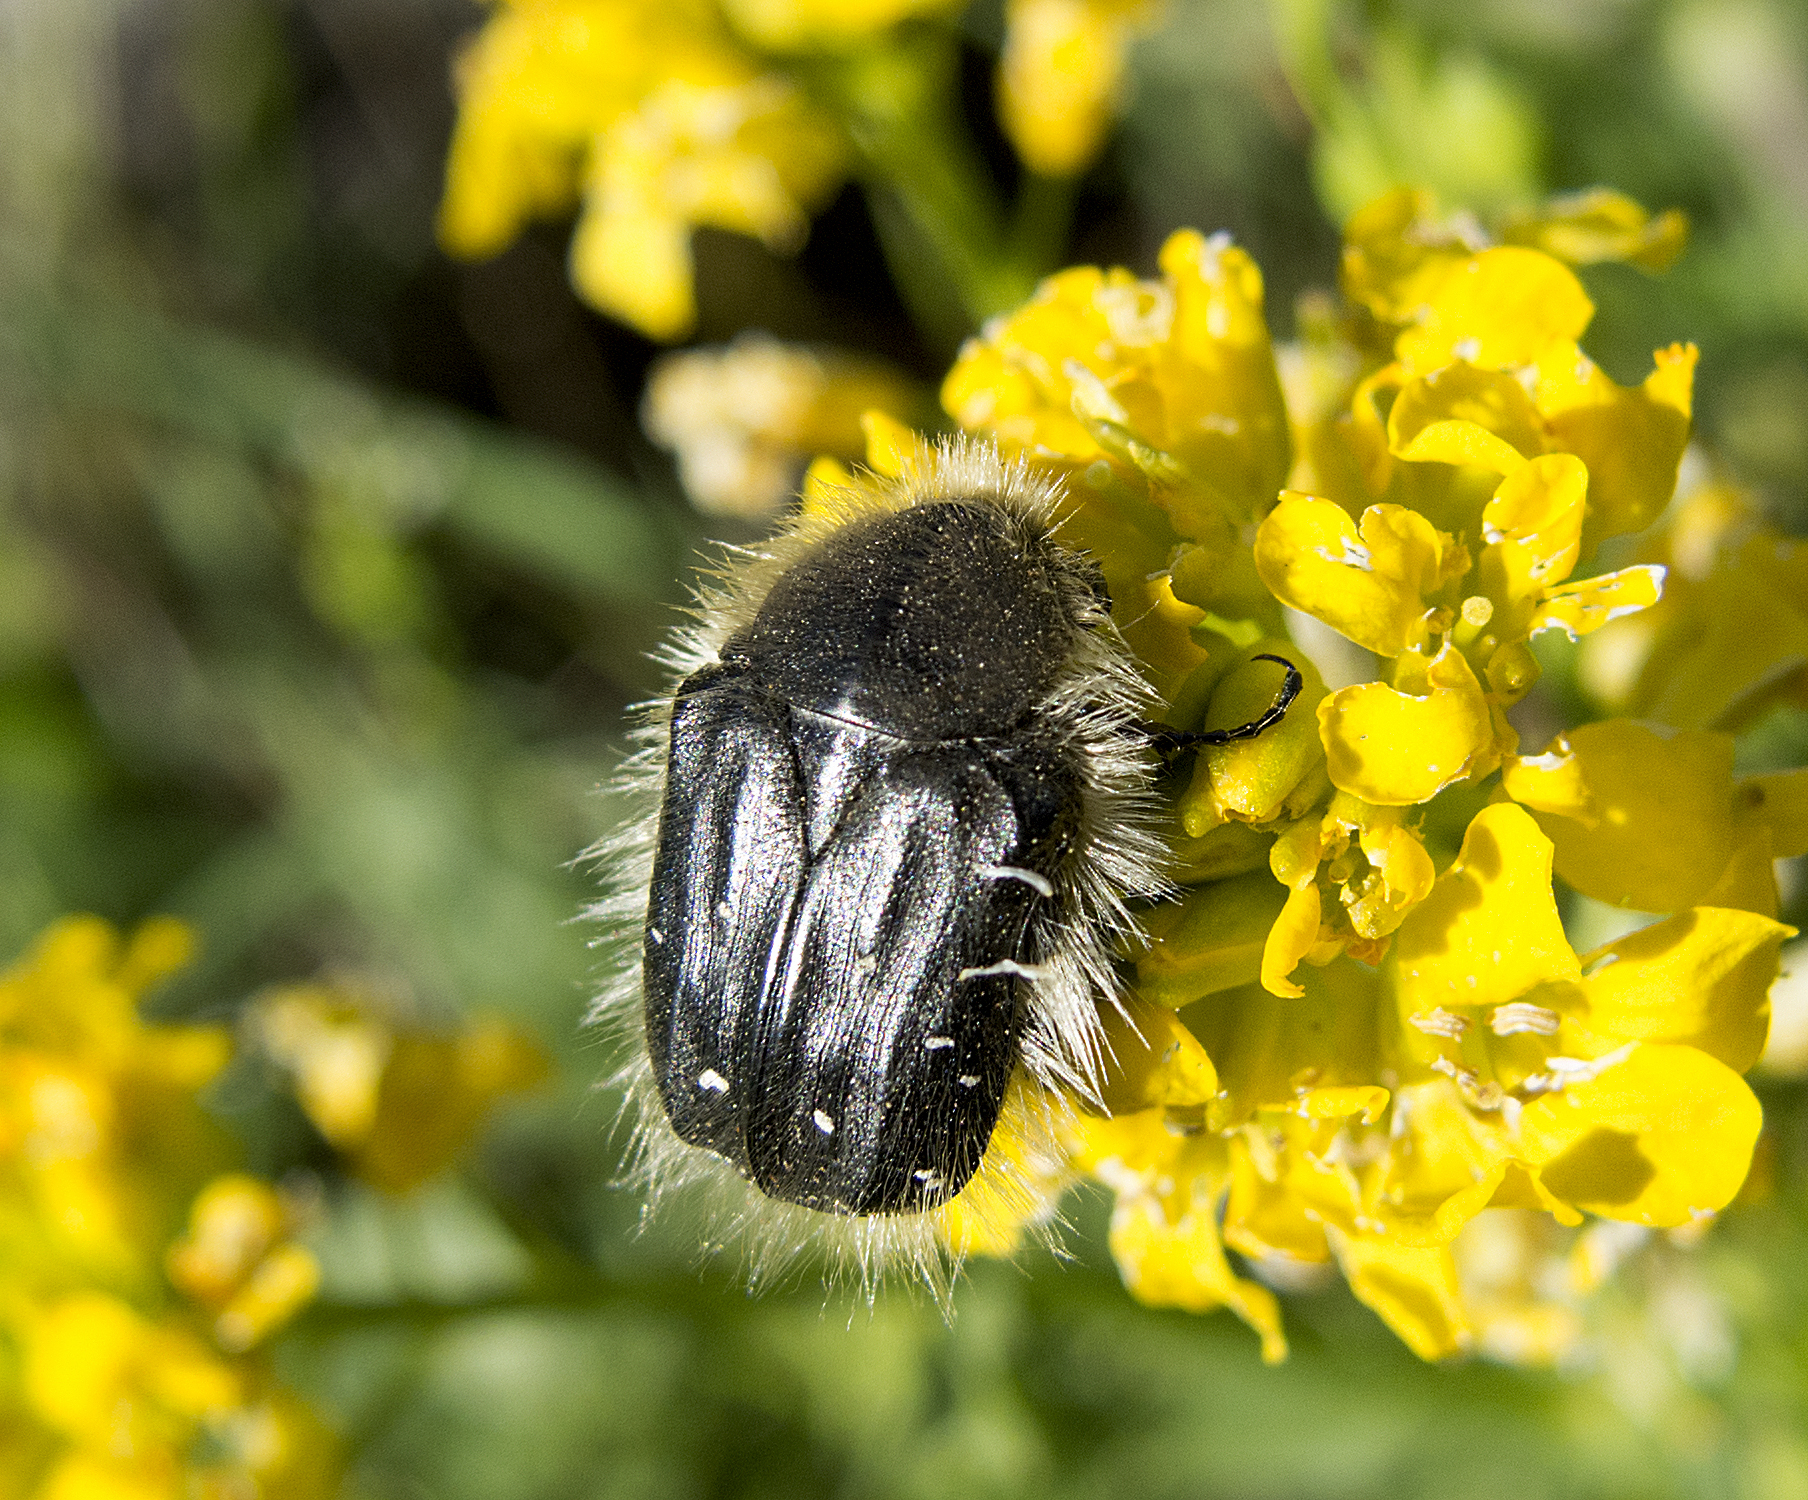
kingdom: Animalia
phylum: Arthropoda
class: Insecta
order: Coleoptera
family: Scarabaeidae
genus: Tropinota
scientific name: Tropinota hirta
